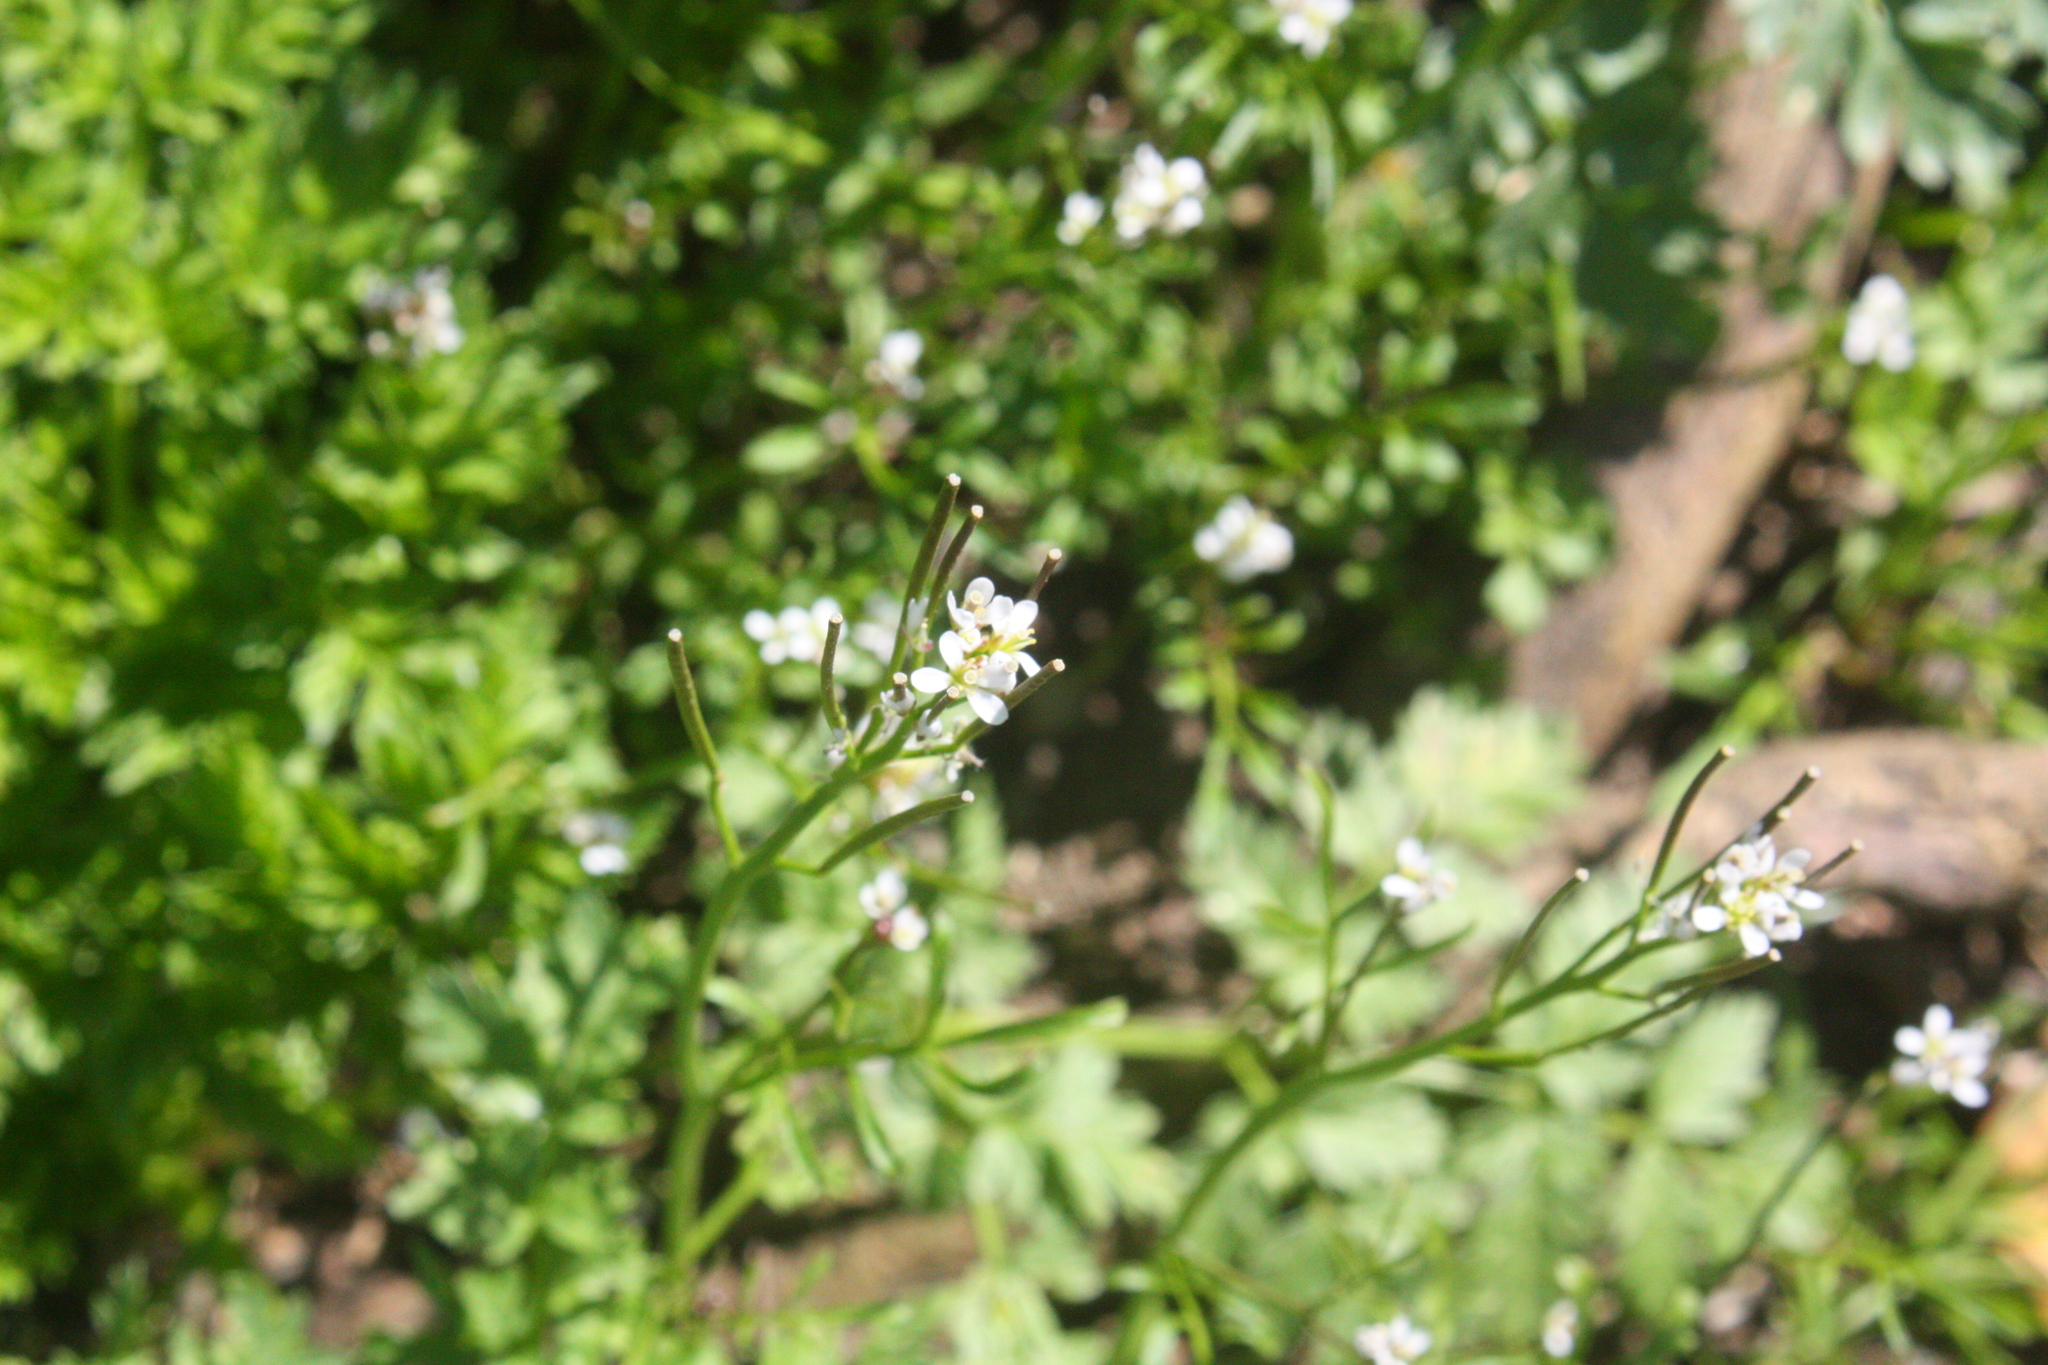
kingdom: Plantae
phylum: Tracheophyta
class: Magnoliopsida
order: Brassicales
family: Brassicaceae
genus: Cardamine
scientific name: Cardamine hirsuta
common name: Hairy bittercress
